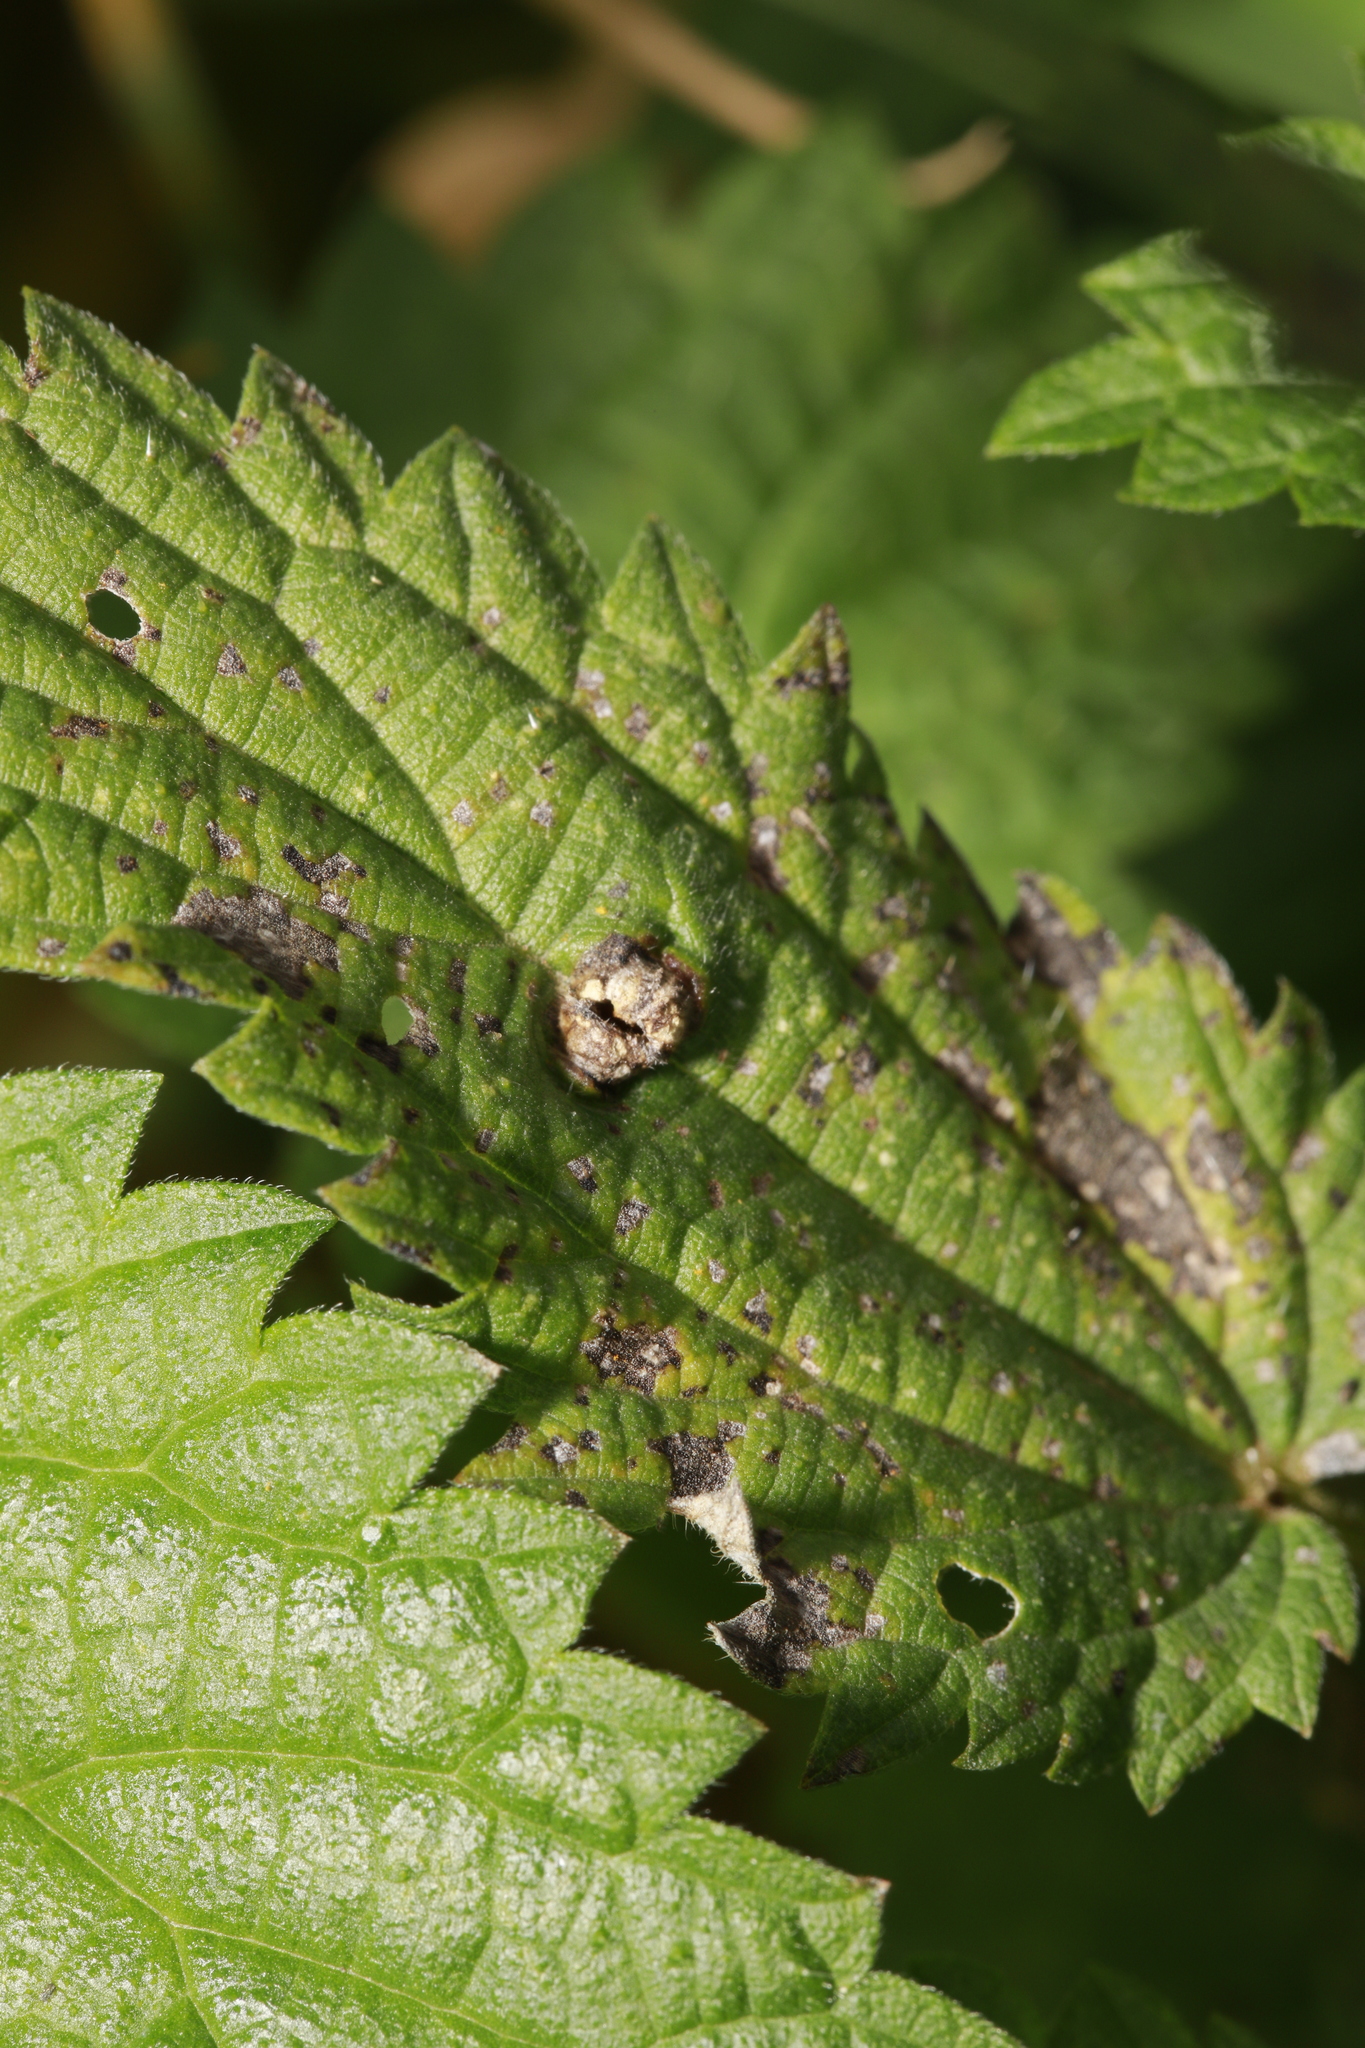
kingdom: Animalia
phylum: Arthropoda
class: Insecta
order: Diptera
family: Cecidomyiidae
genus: Dasineura
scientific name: Dasineura urticae
